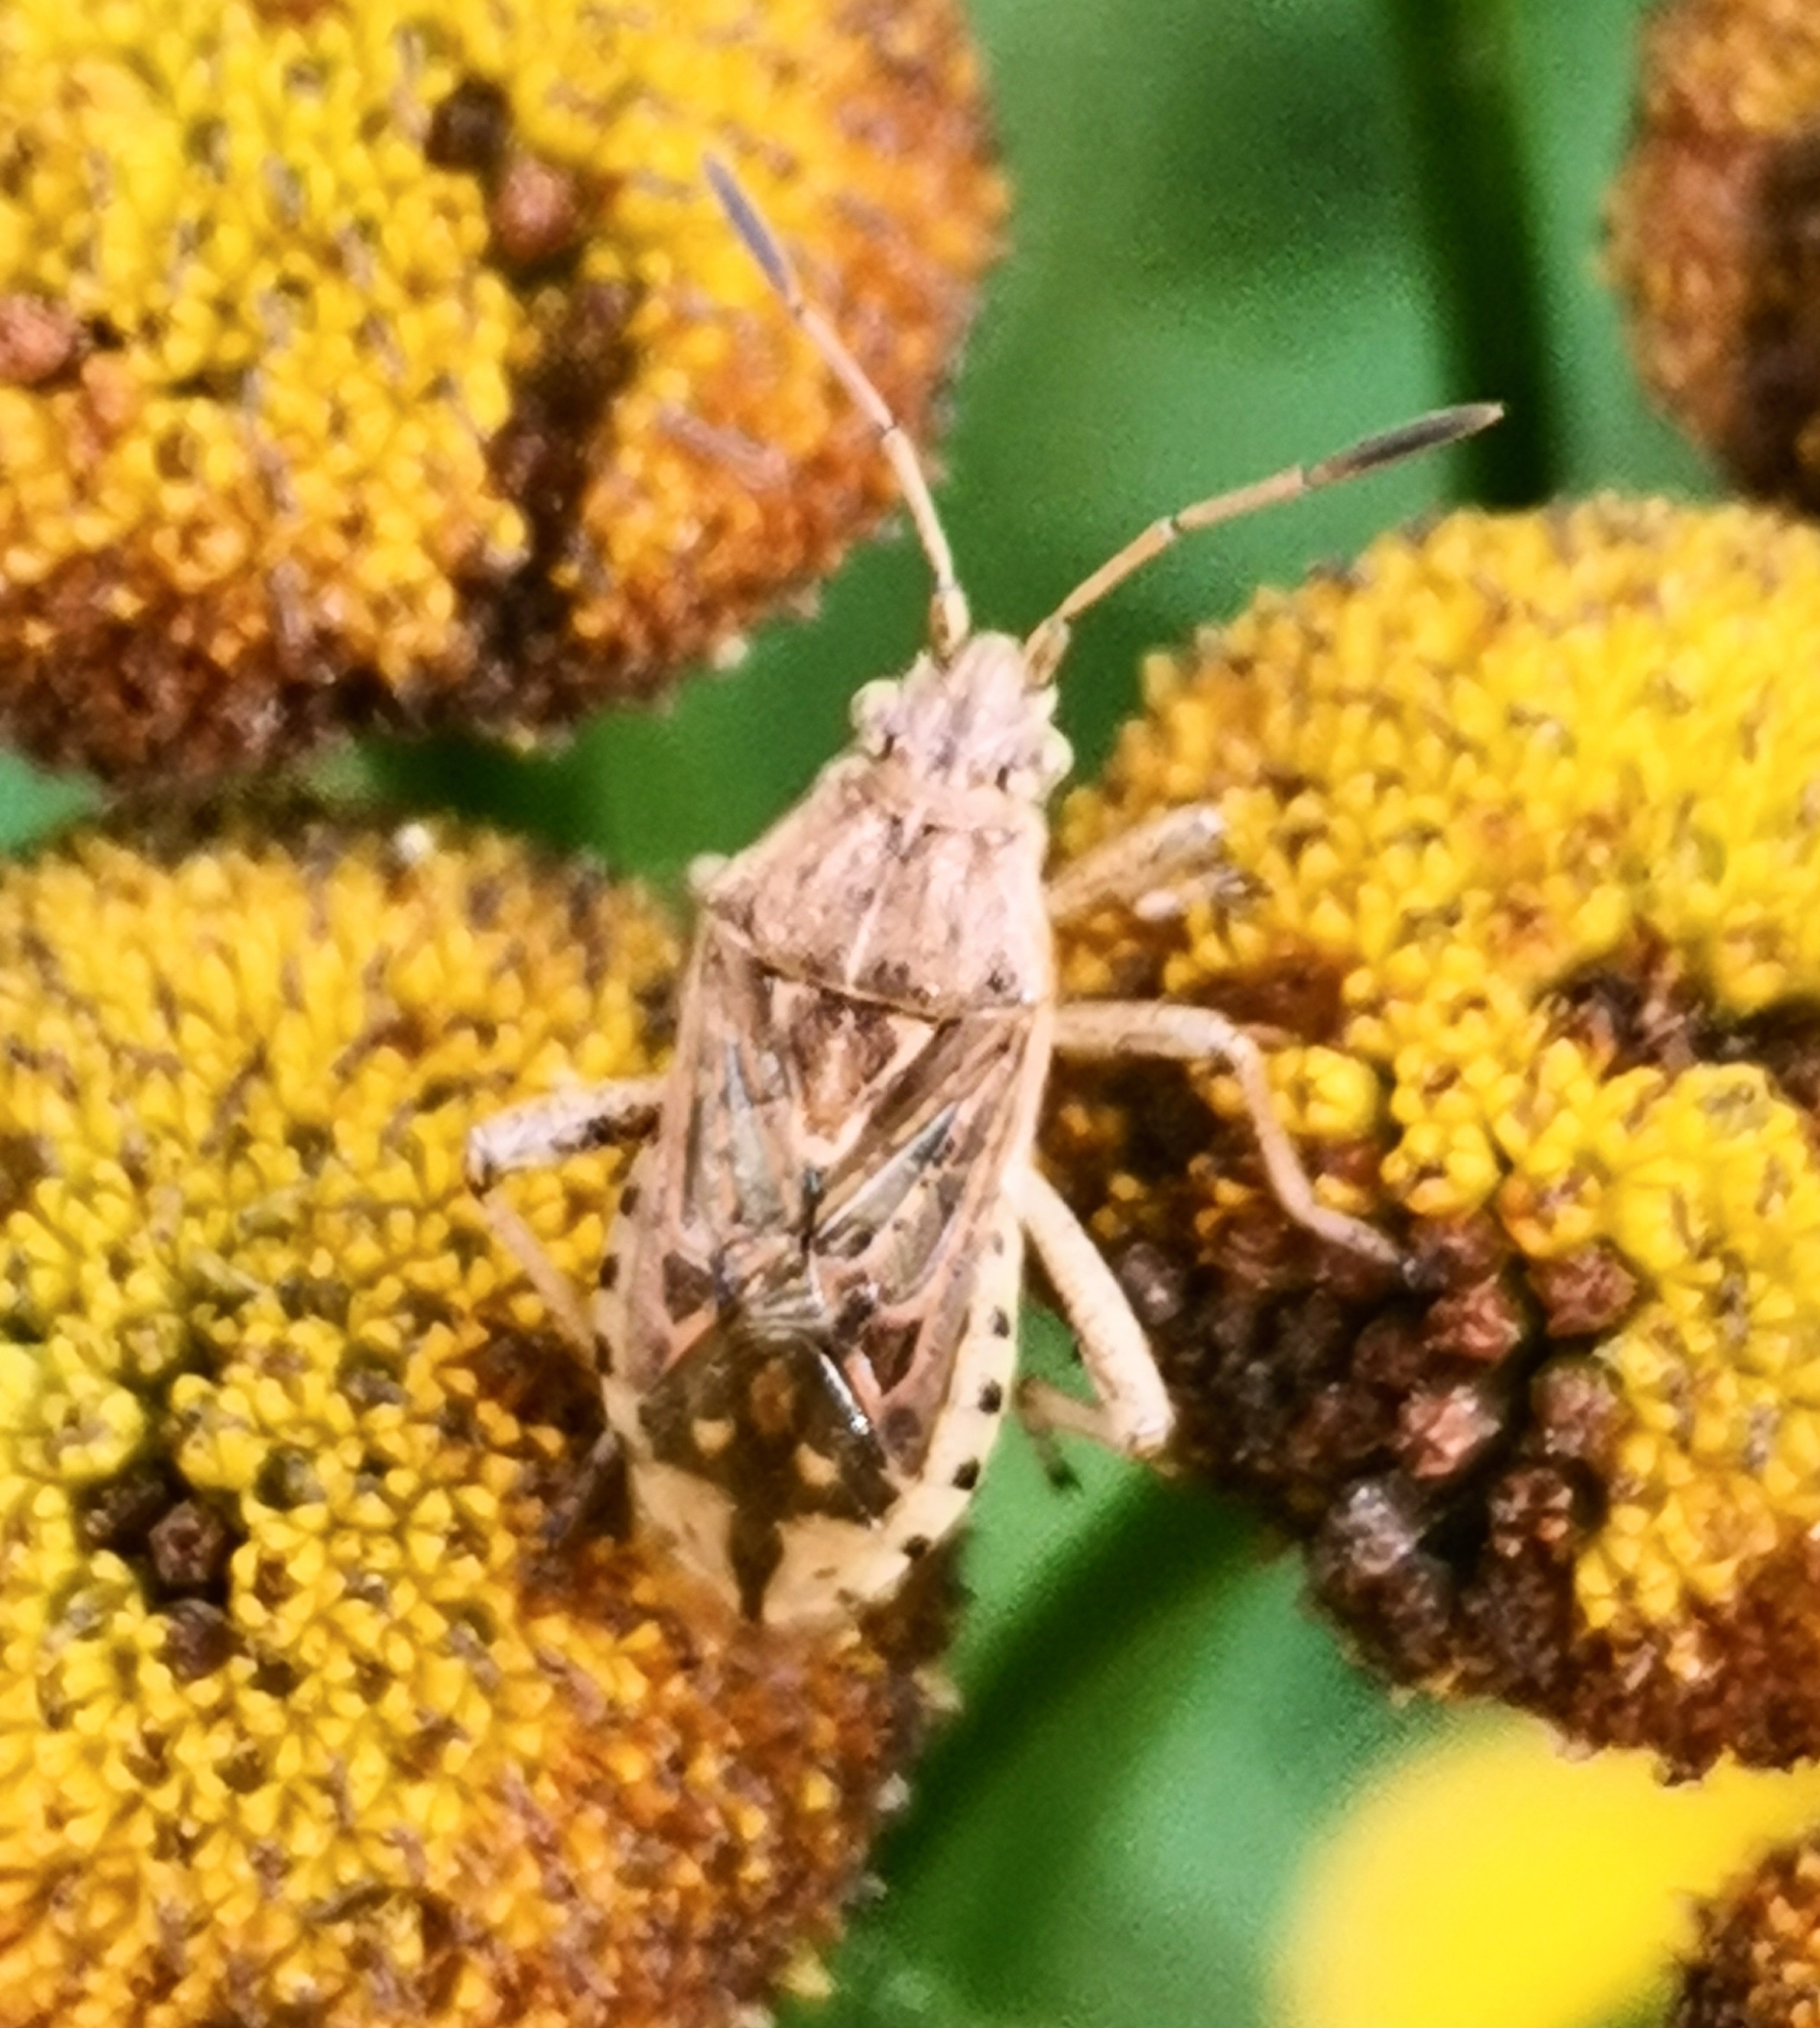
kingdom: Animalia
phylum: Arthropoda
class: Insecta
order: Hemiptera
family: Rhopalidae
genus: Stictopleurus
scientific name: Stictopleurus abutilon
